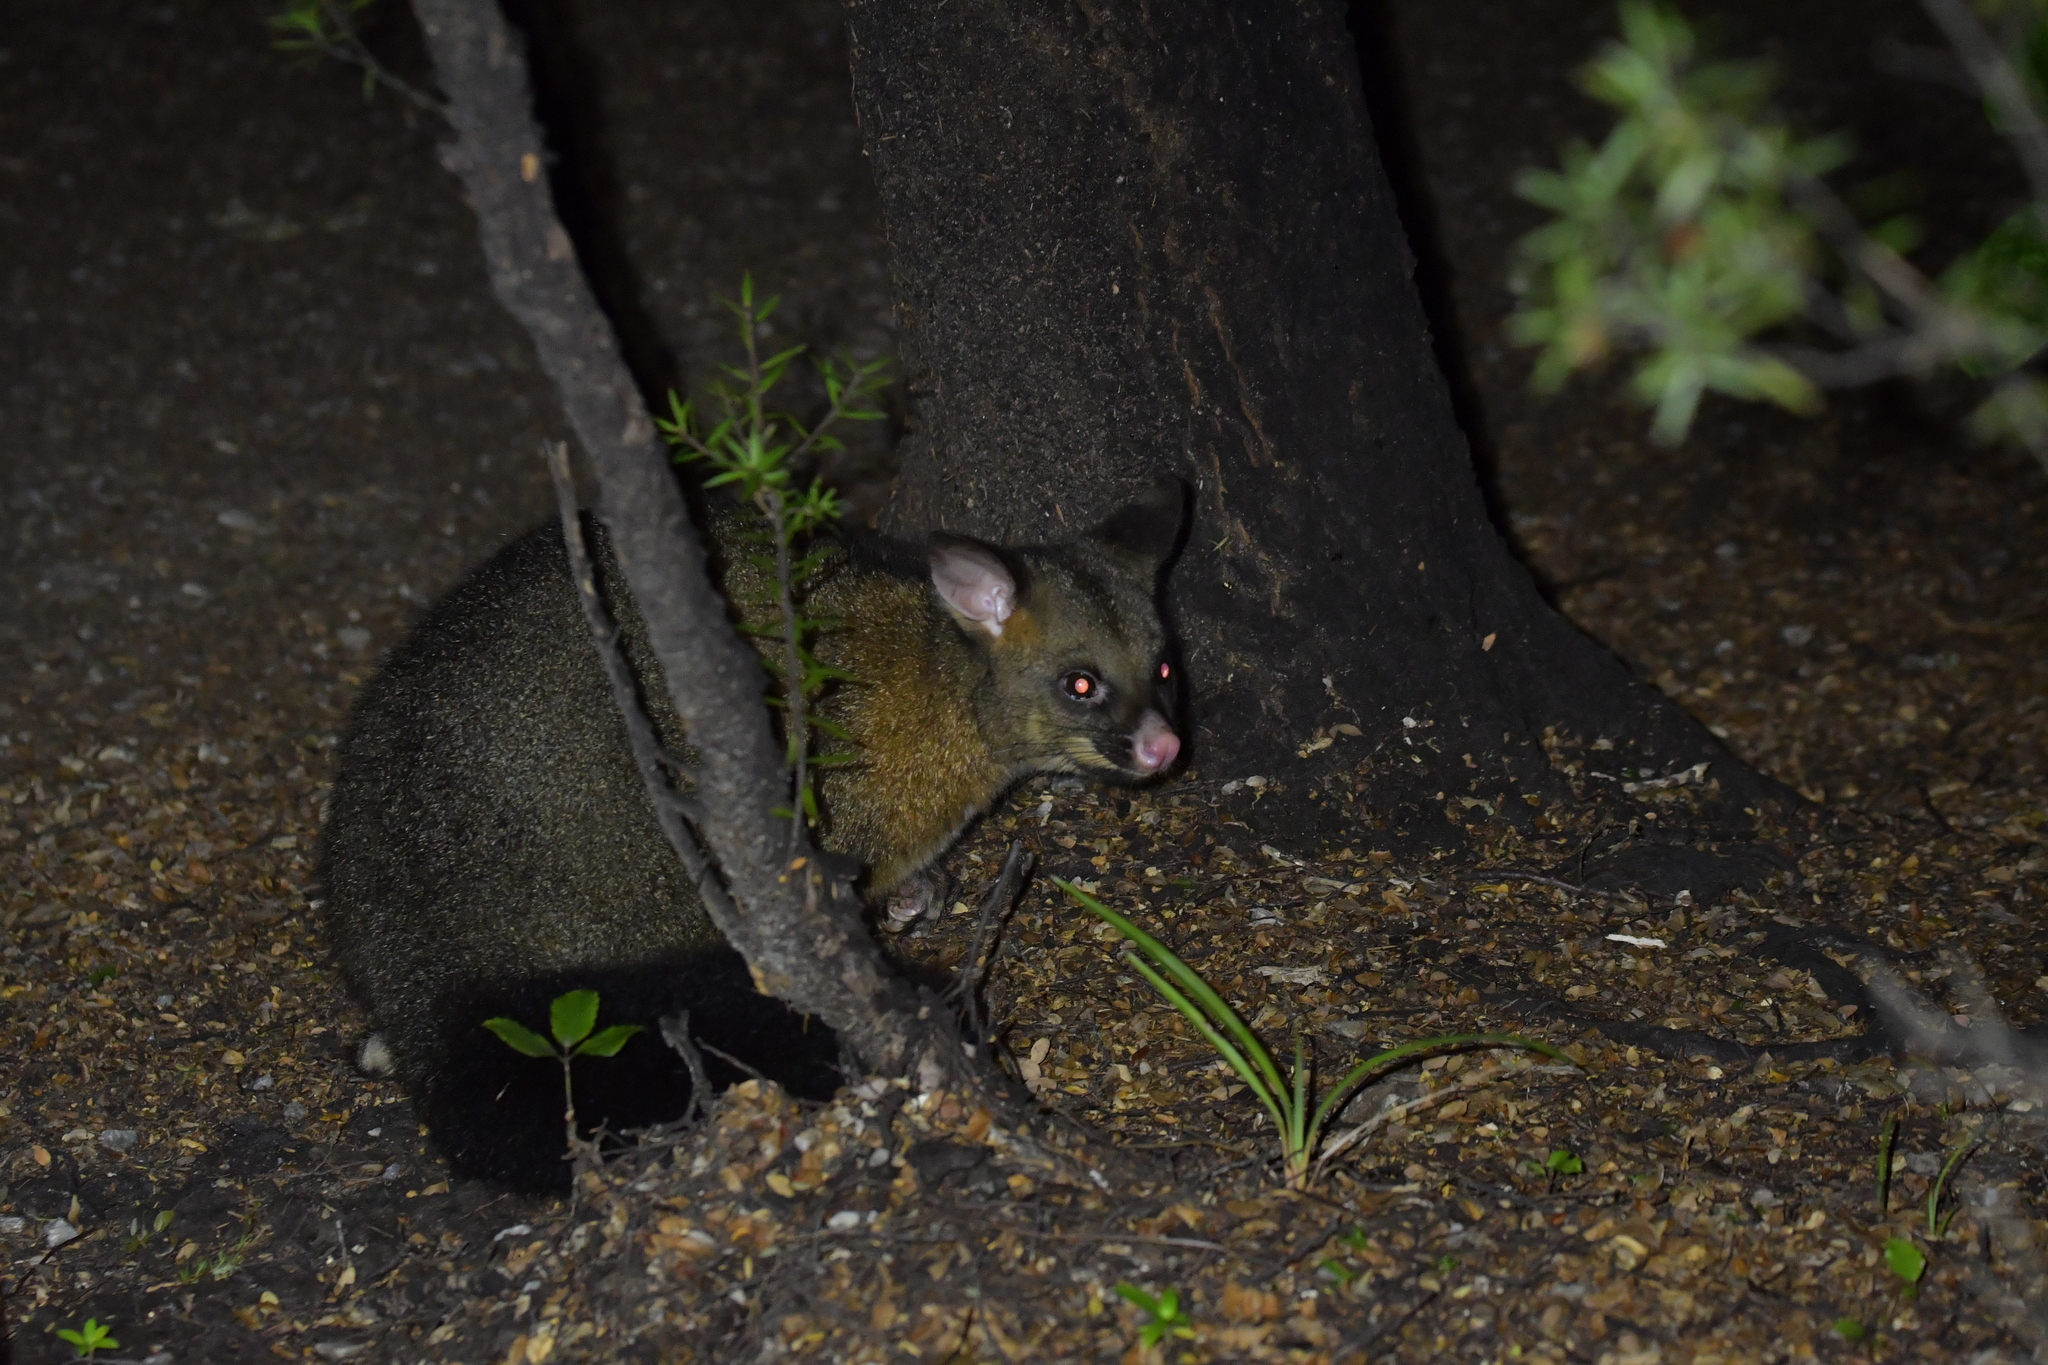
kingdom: Animalia
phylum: Chordata
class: Mammalia
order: Diprotodontia
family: Phalangeridae
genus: Trichosurus
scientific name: Trichosurus vulpecula
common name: Common brushtail
